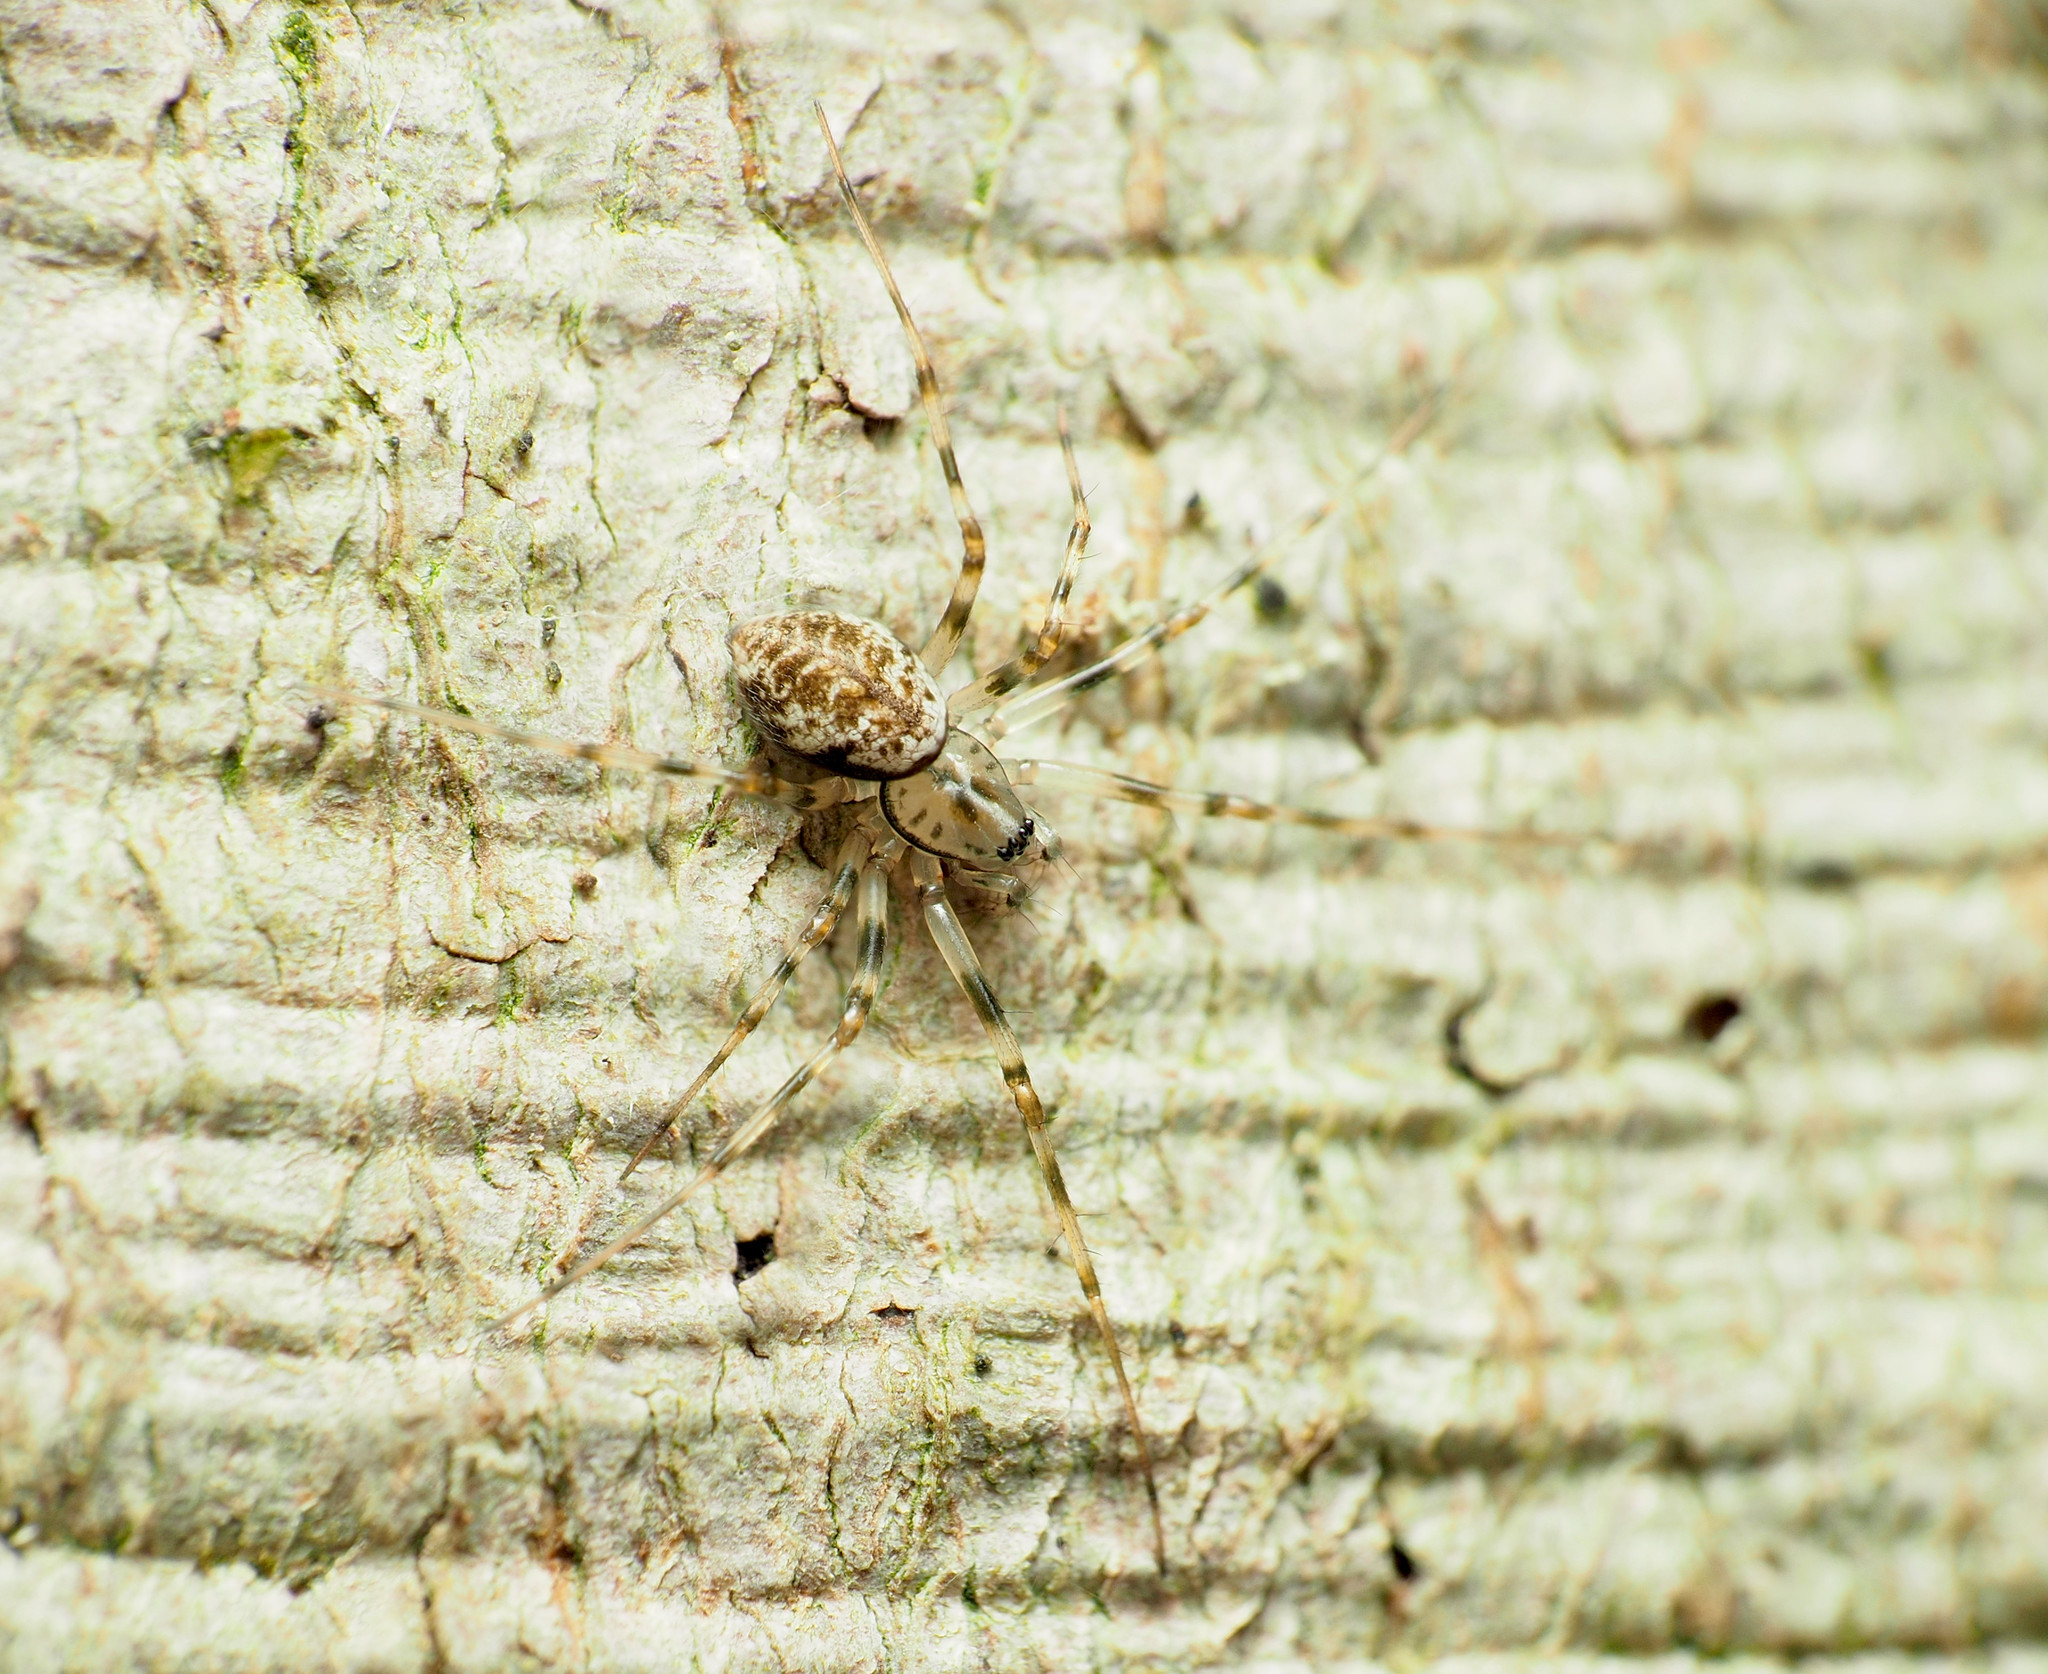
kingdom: Animalia
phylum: Arthropoda
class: Arachnida
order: Araneae
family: Linyphiidae
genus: Drapetisca
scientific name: Drapetisca alteranda
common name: Northern long-toothed sheetweaver
